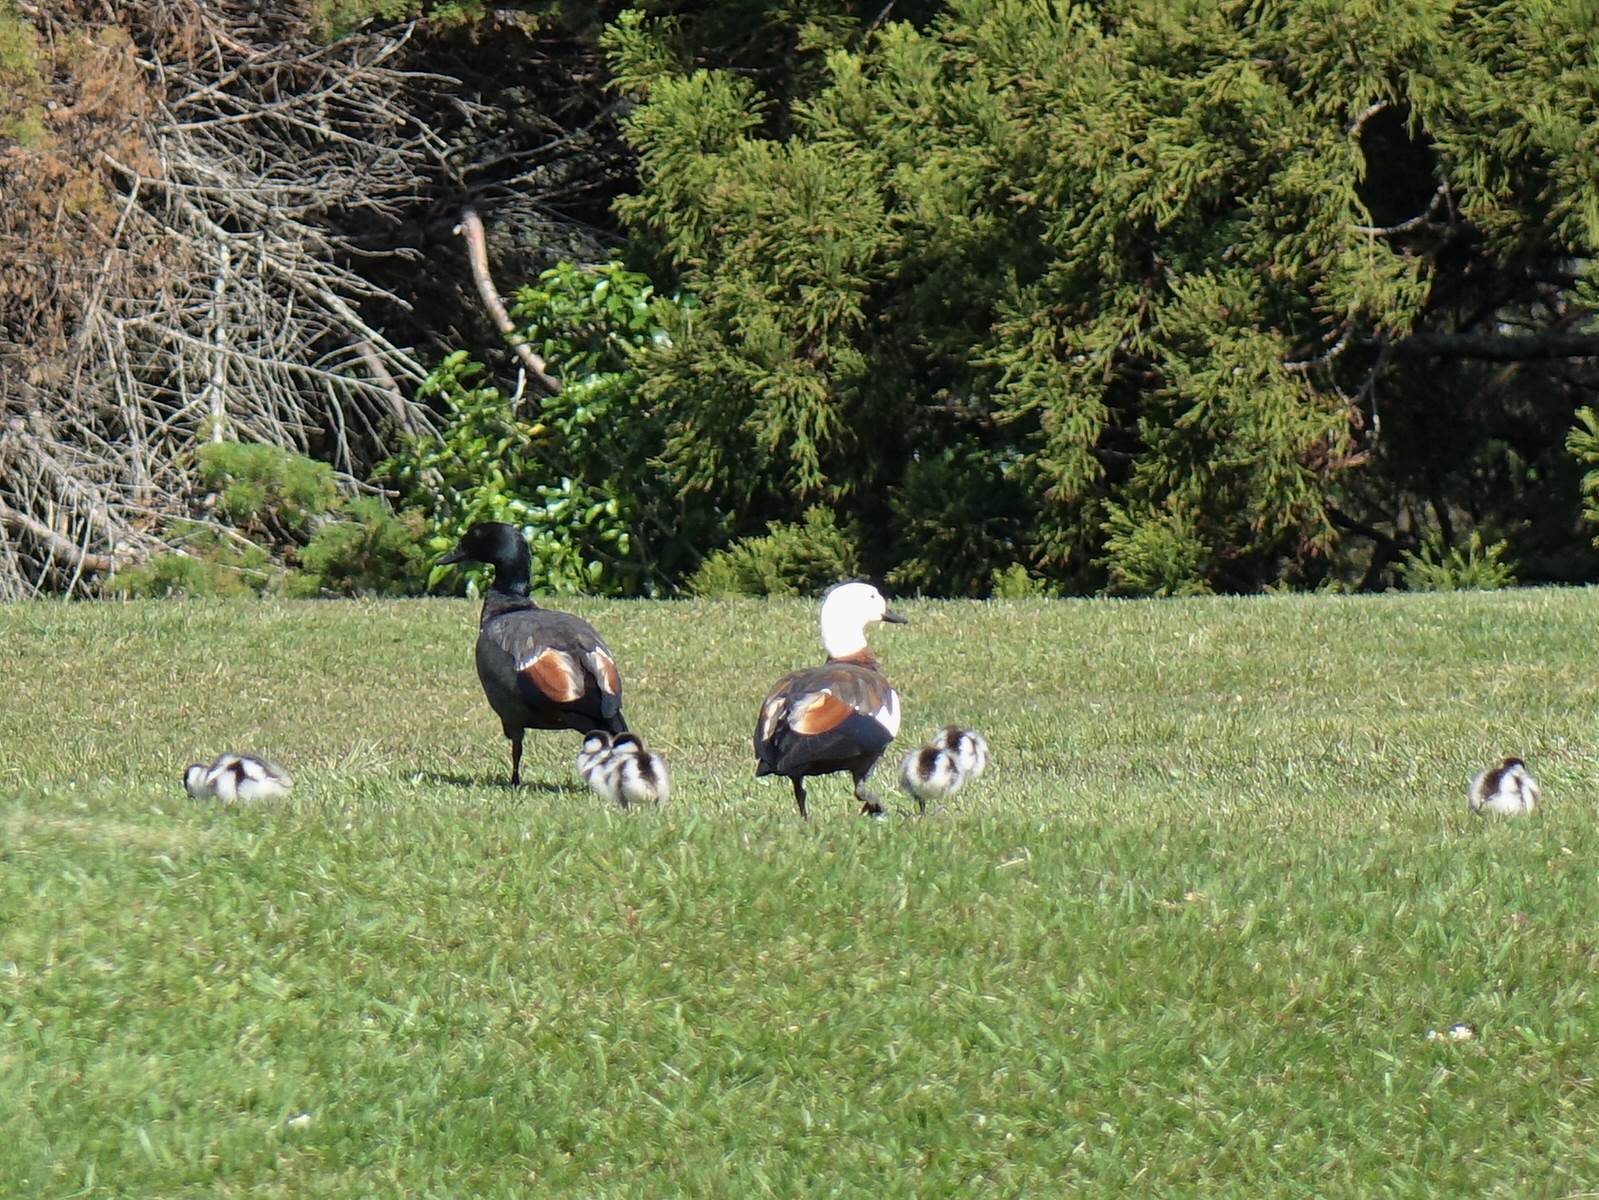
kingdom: Animalia
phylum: Chordata
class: Aves
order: Anseriformes
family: Anatidae
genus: Tadorna
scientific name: Tadorna variegata
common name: Paradise shelduck
